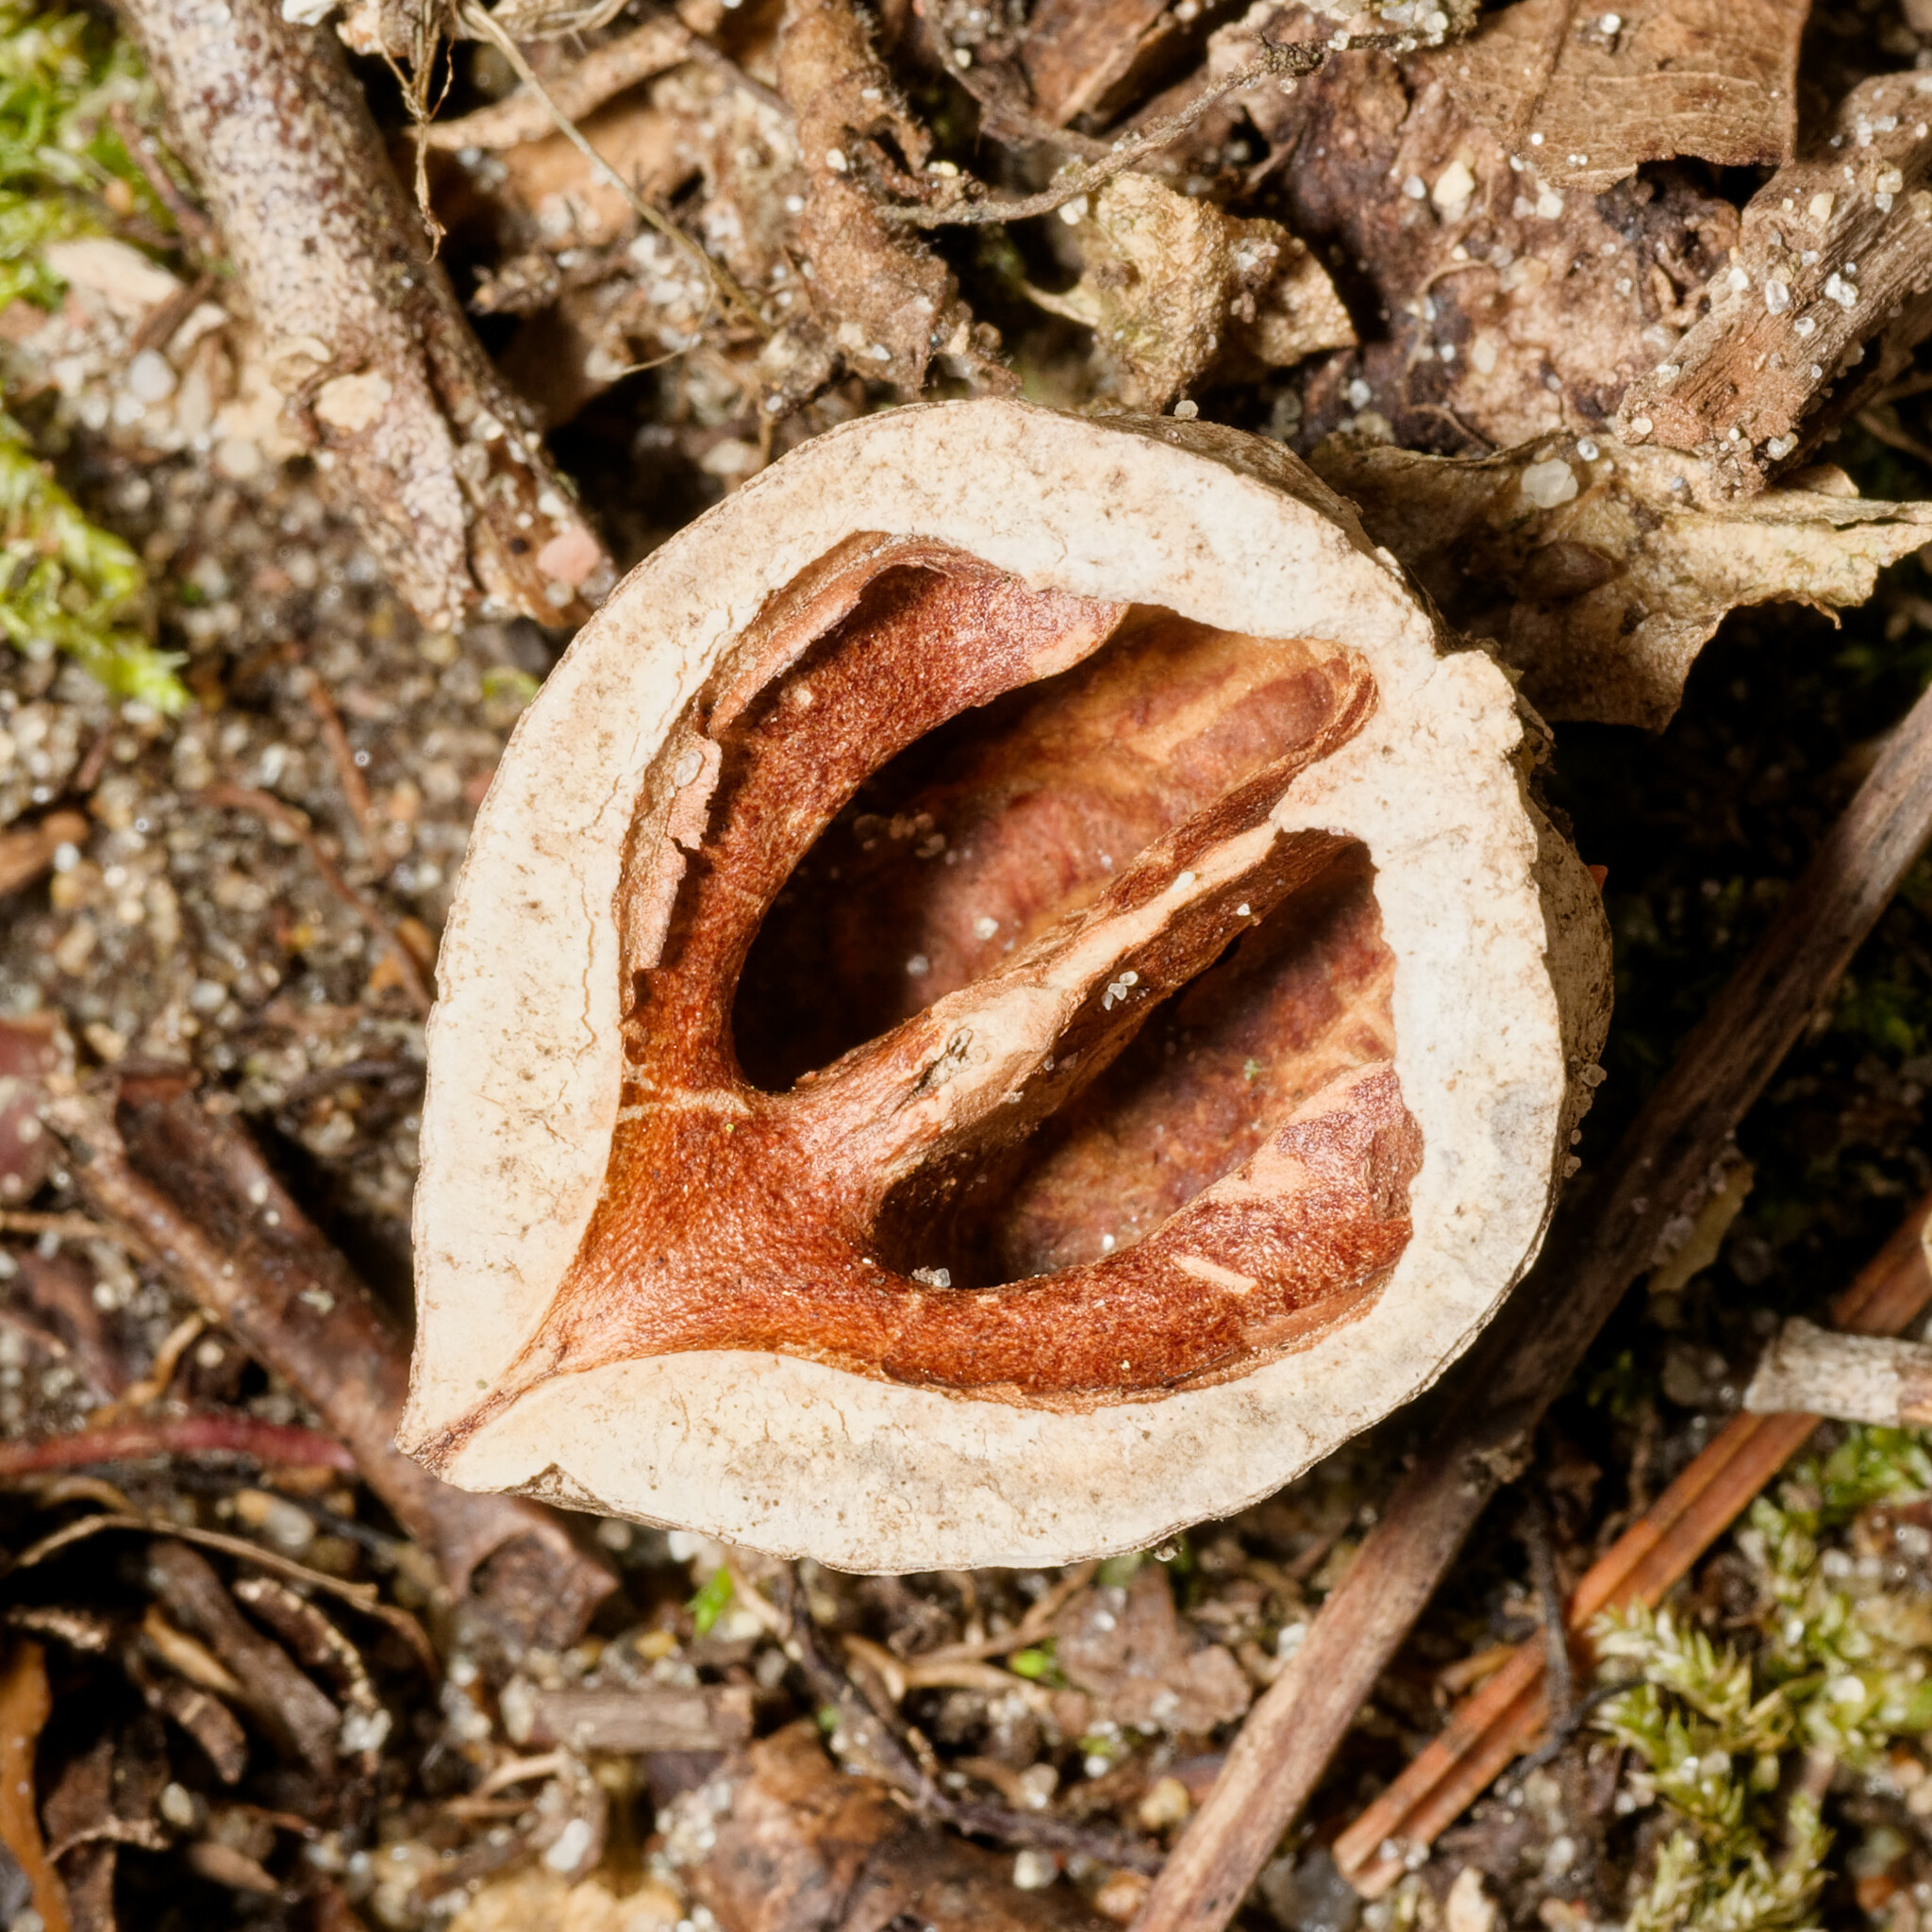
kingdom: Plantae
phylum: Tracheophyta
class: Magnoliopsida
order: Fagales
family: Juglandaceae
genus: Juglans
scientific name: Juglans nigra
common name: Black walnut
